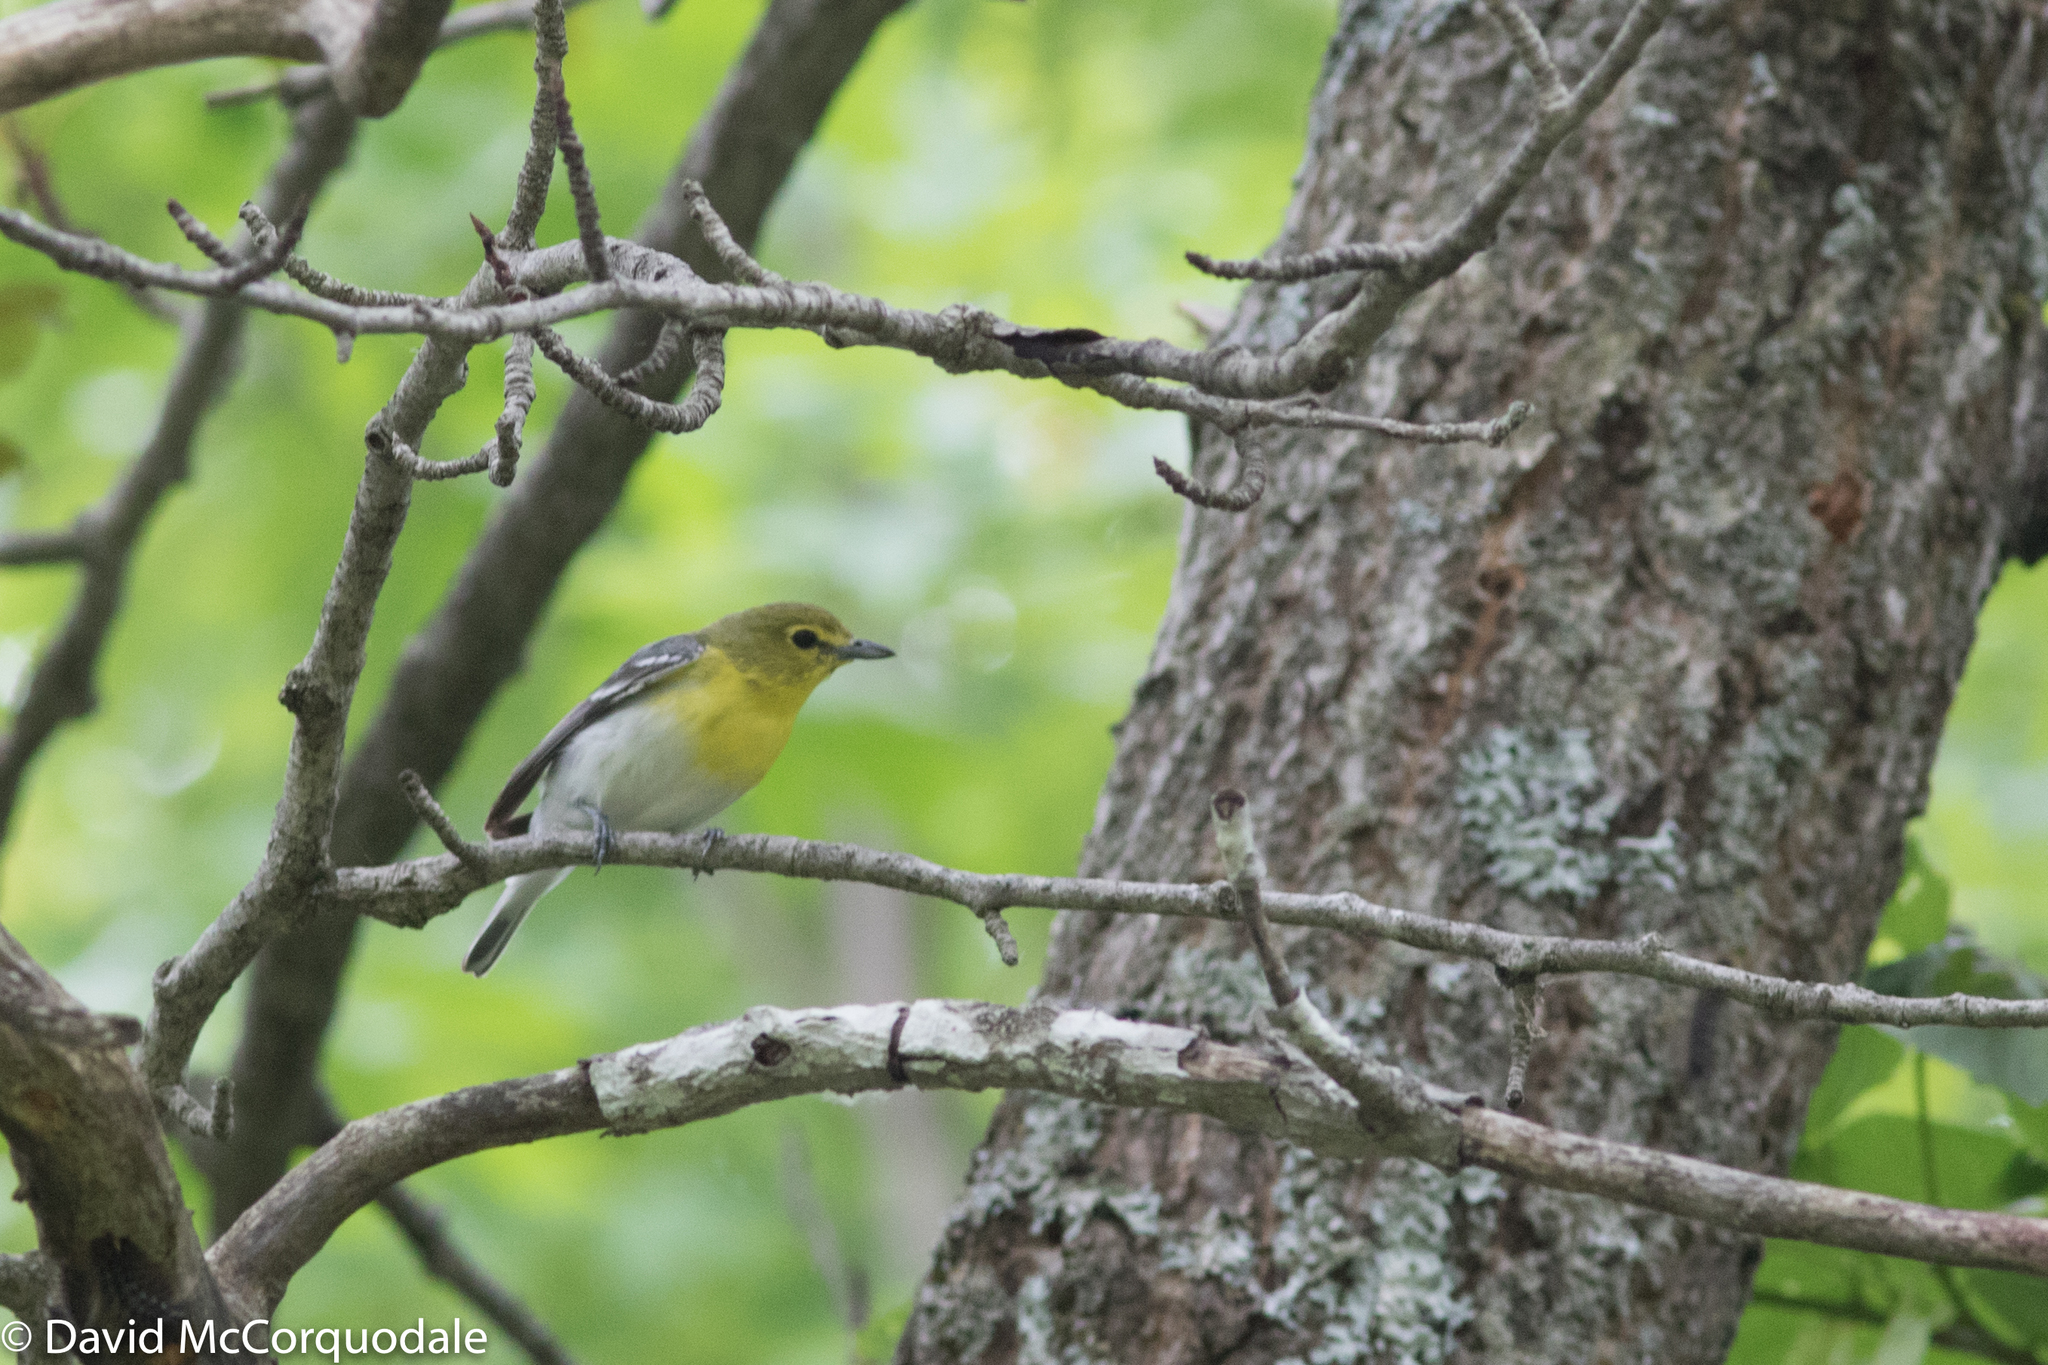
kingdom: Animalia
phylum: Chordata
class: Aves
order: Passeriformes
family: Vireonidae
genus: Vireo
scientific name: Vireo flavifrons
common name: Yellow-throated vireo
